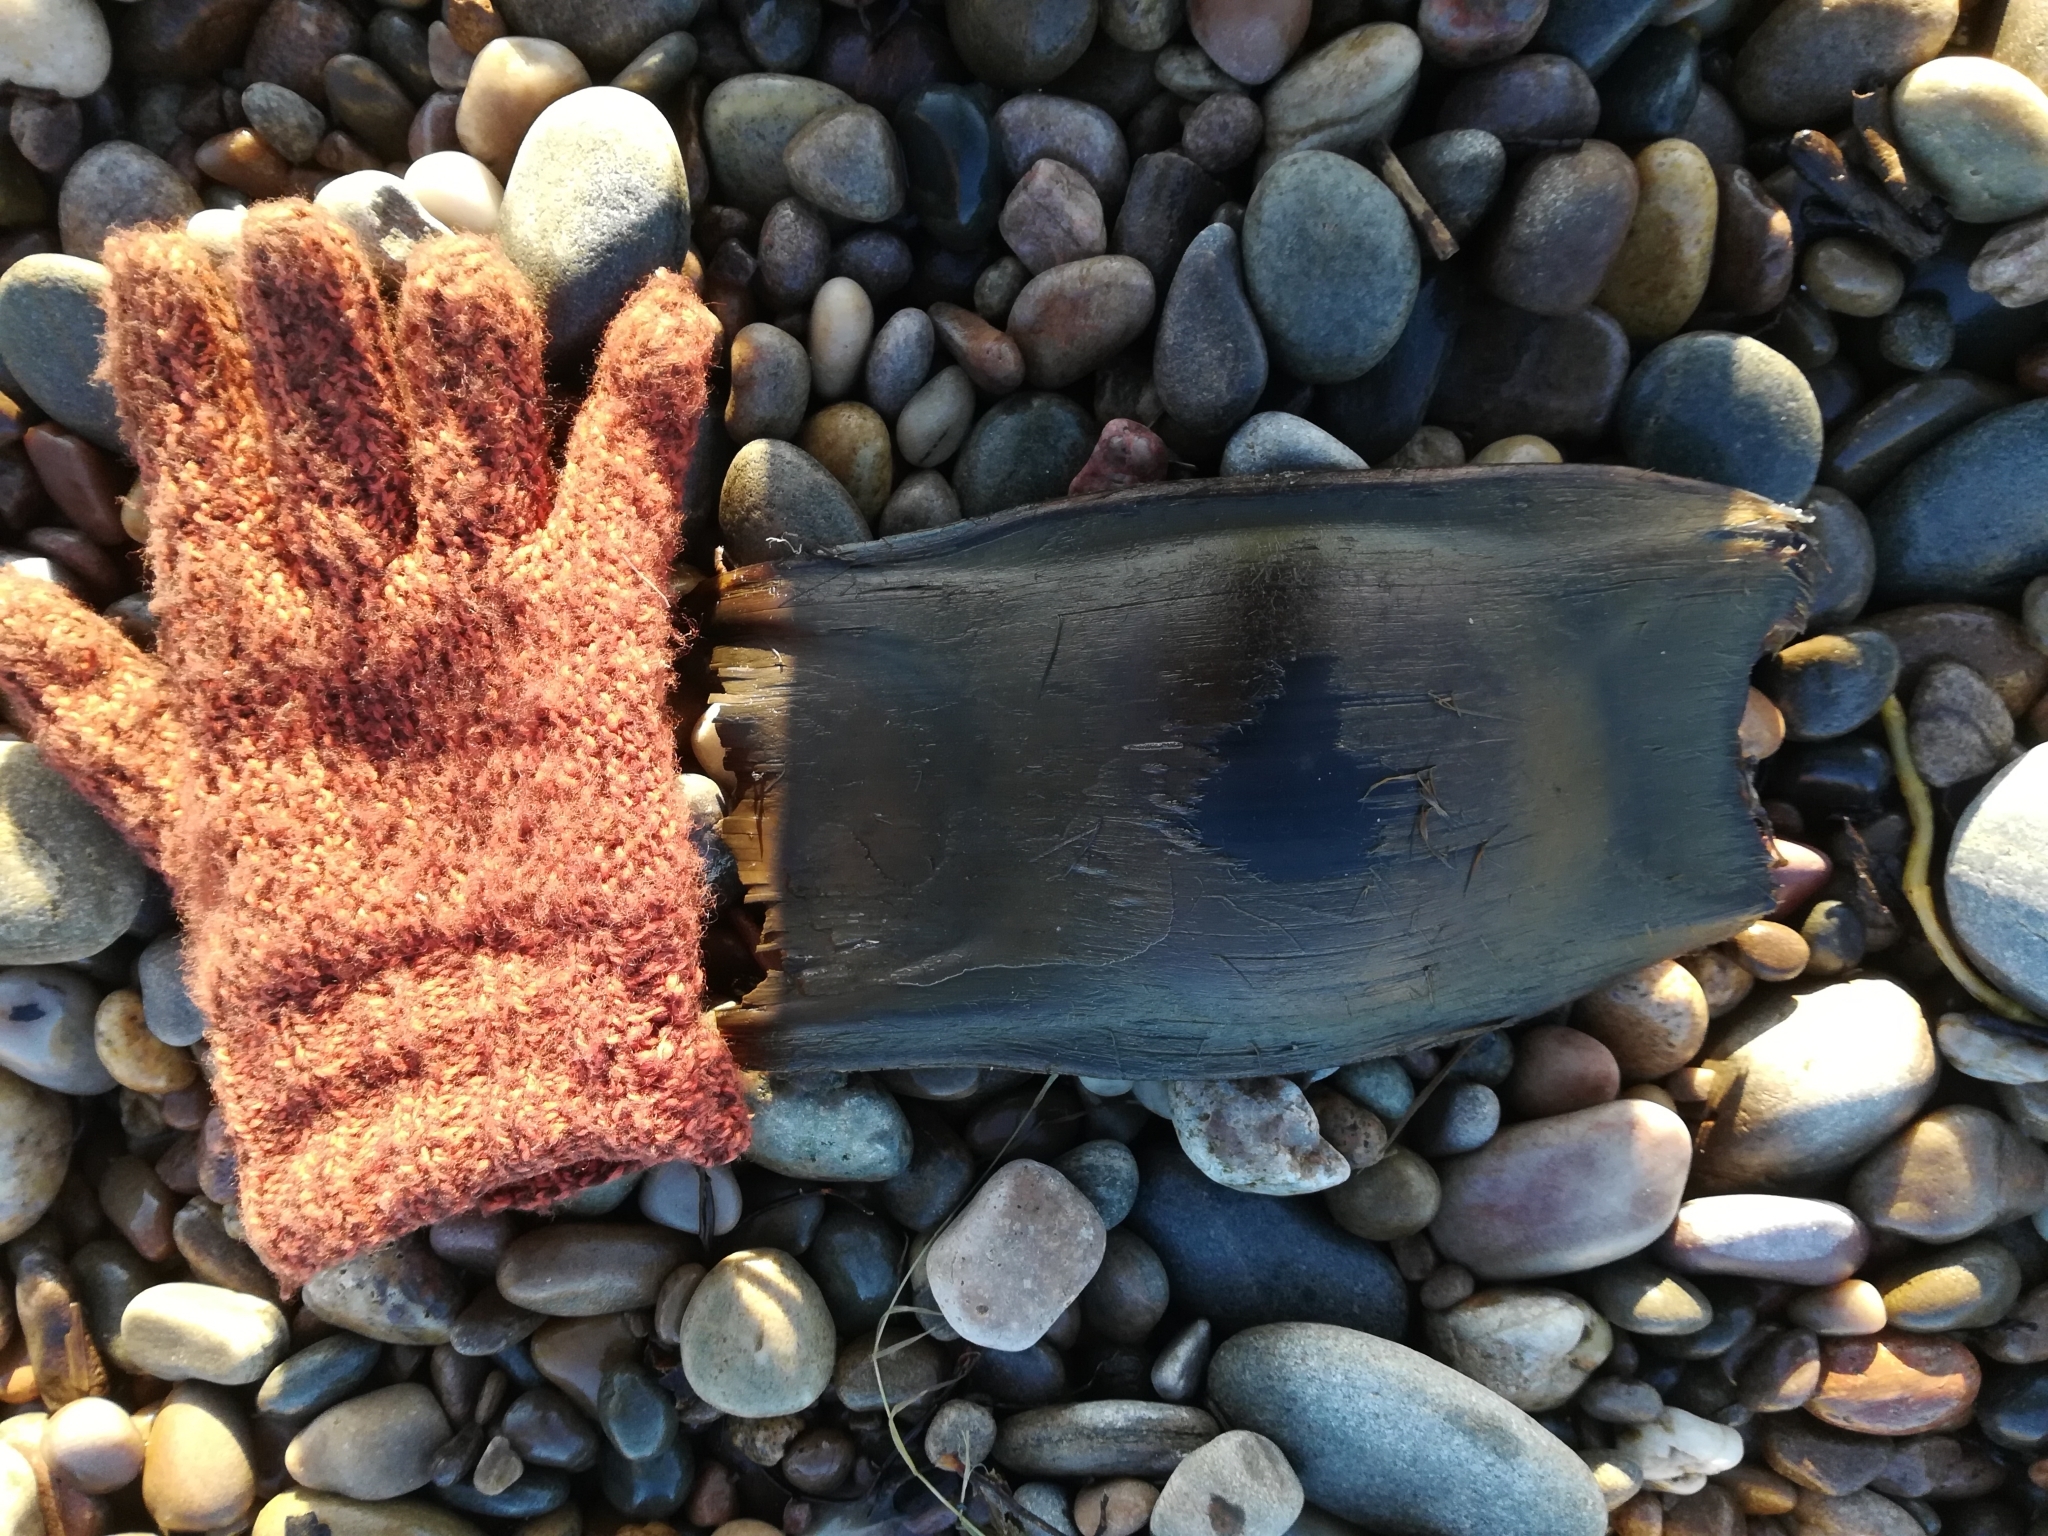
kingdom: Animalia
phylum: Chordata
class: Elasmobranchii
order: Rajiformes
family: Rajidae
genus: Dipturus
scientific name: Dipturus batis
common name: Blue skate
